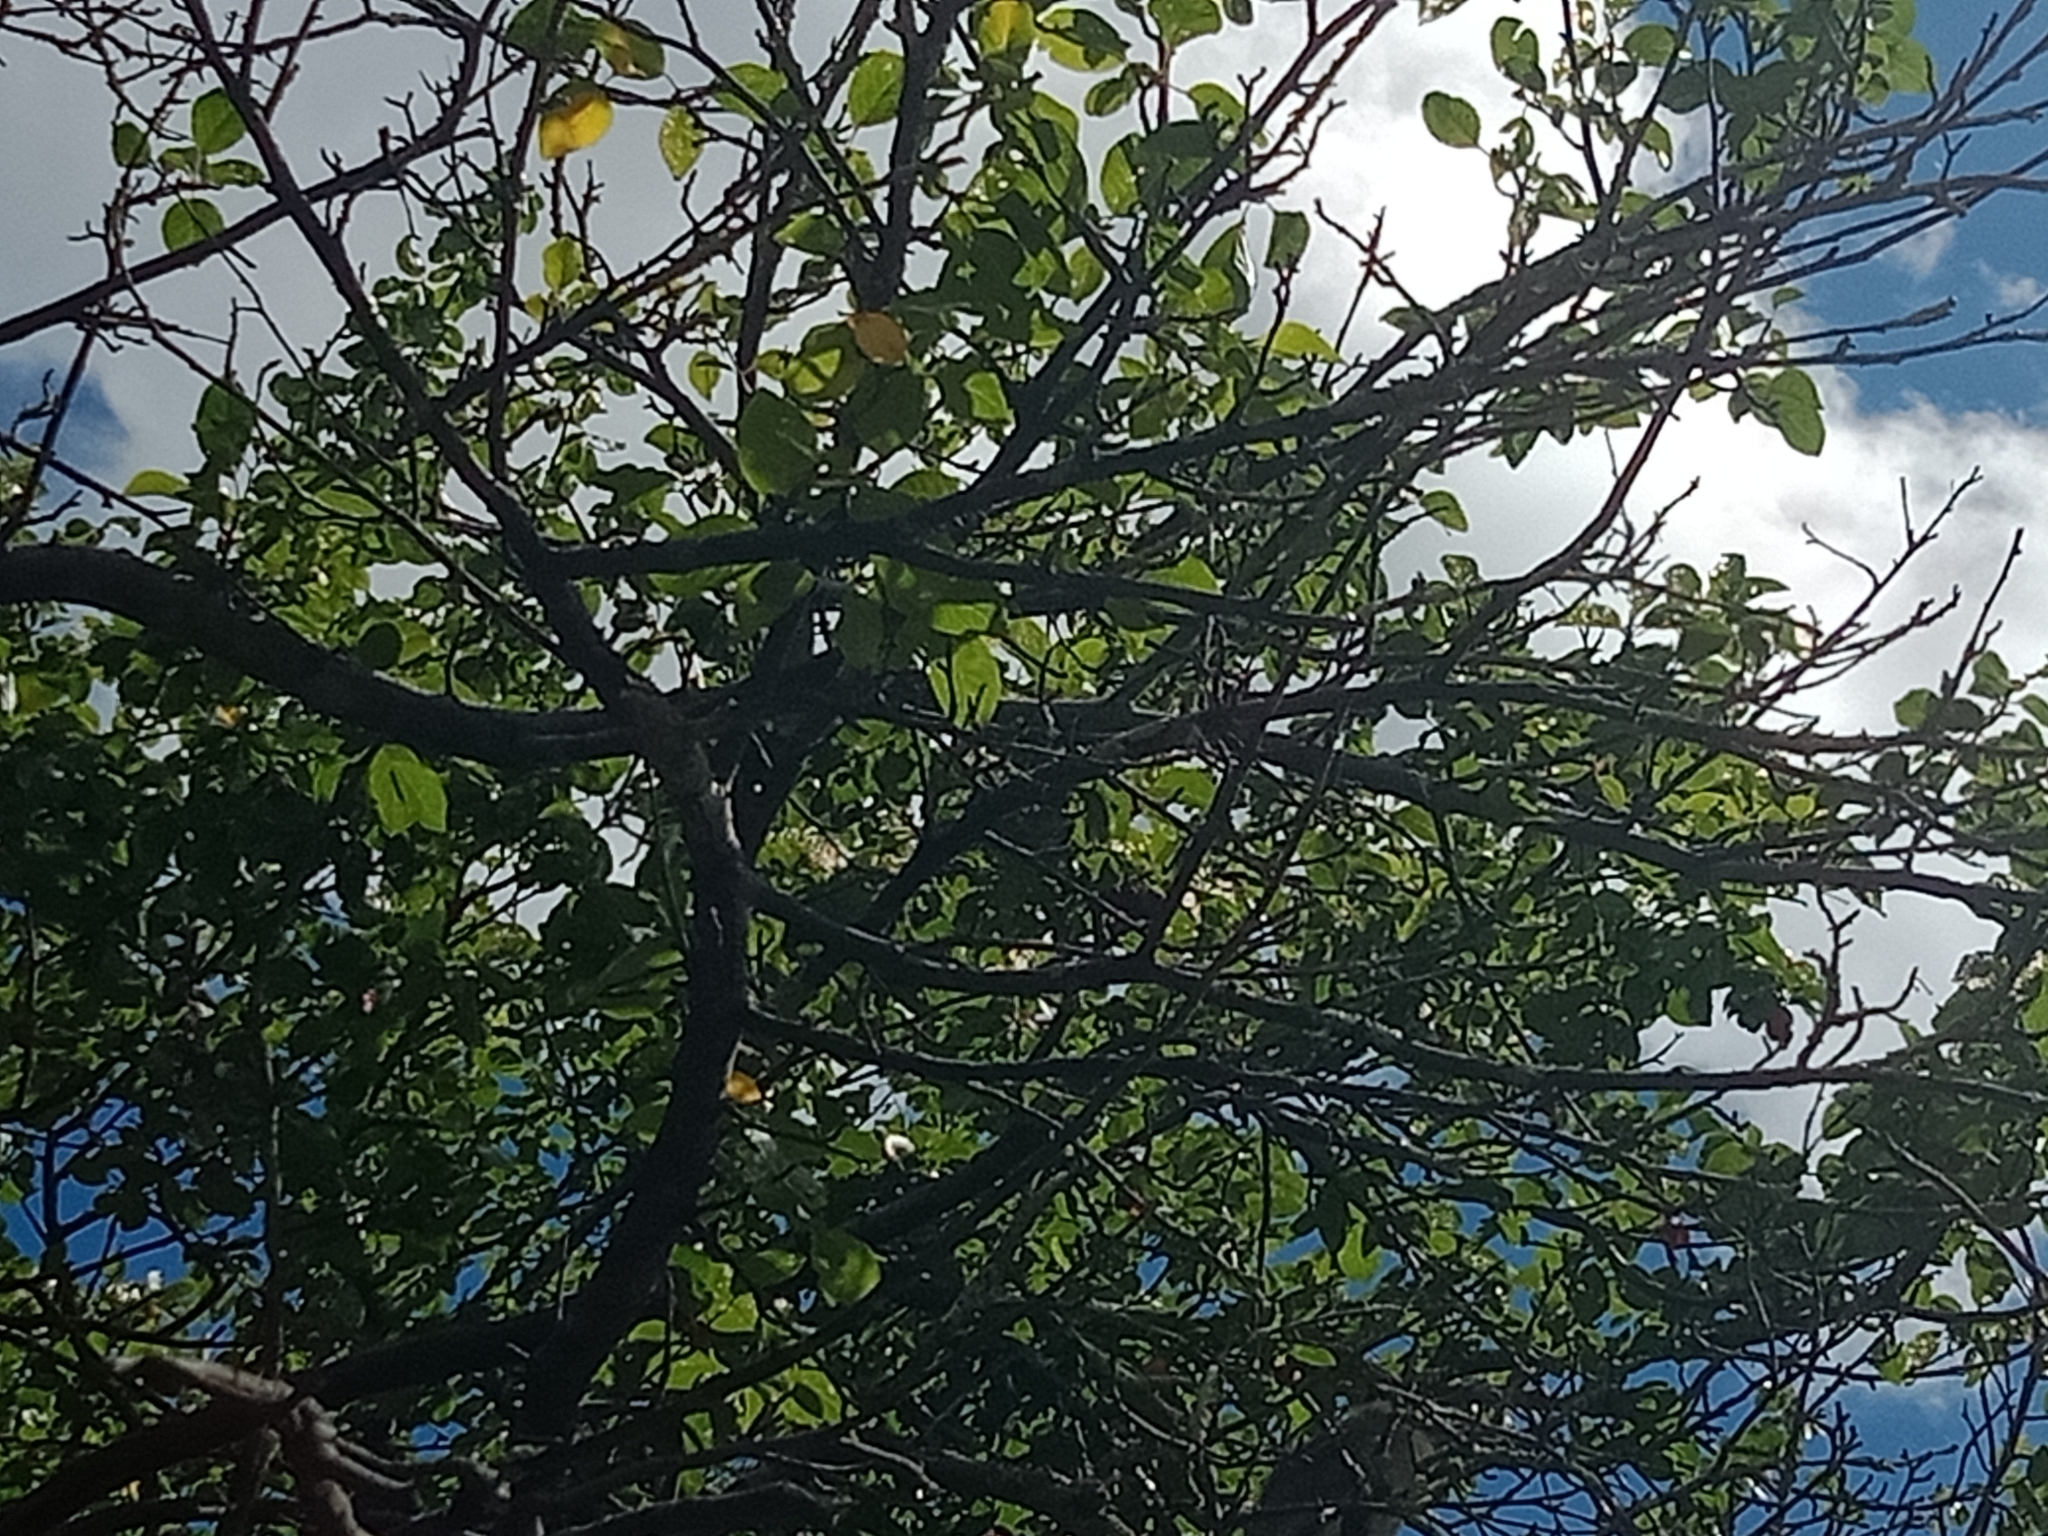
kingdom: Animalia
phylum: Chordata
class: Aves
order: Passeriformes
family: Meliphagidae
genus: Philemon
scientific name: Philemon corniculatus
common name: Noisy friarbird
